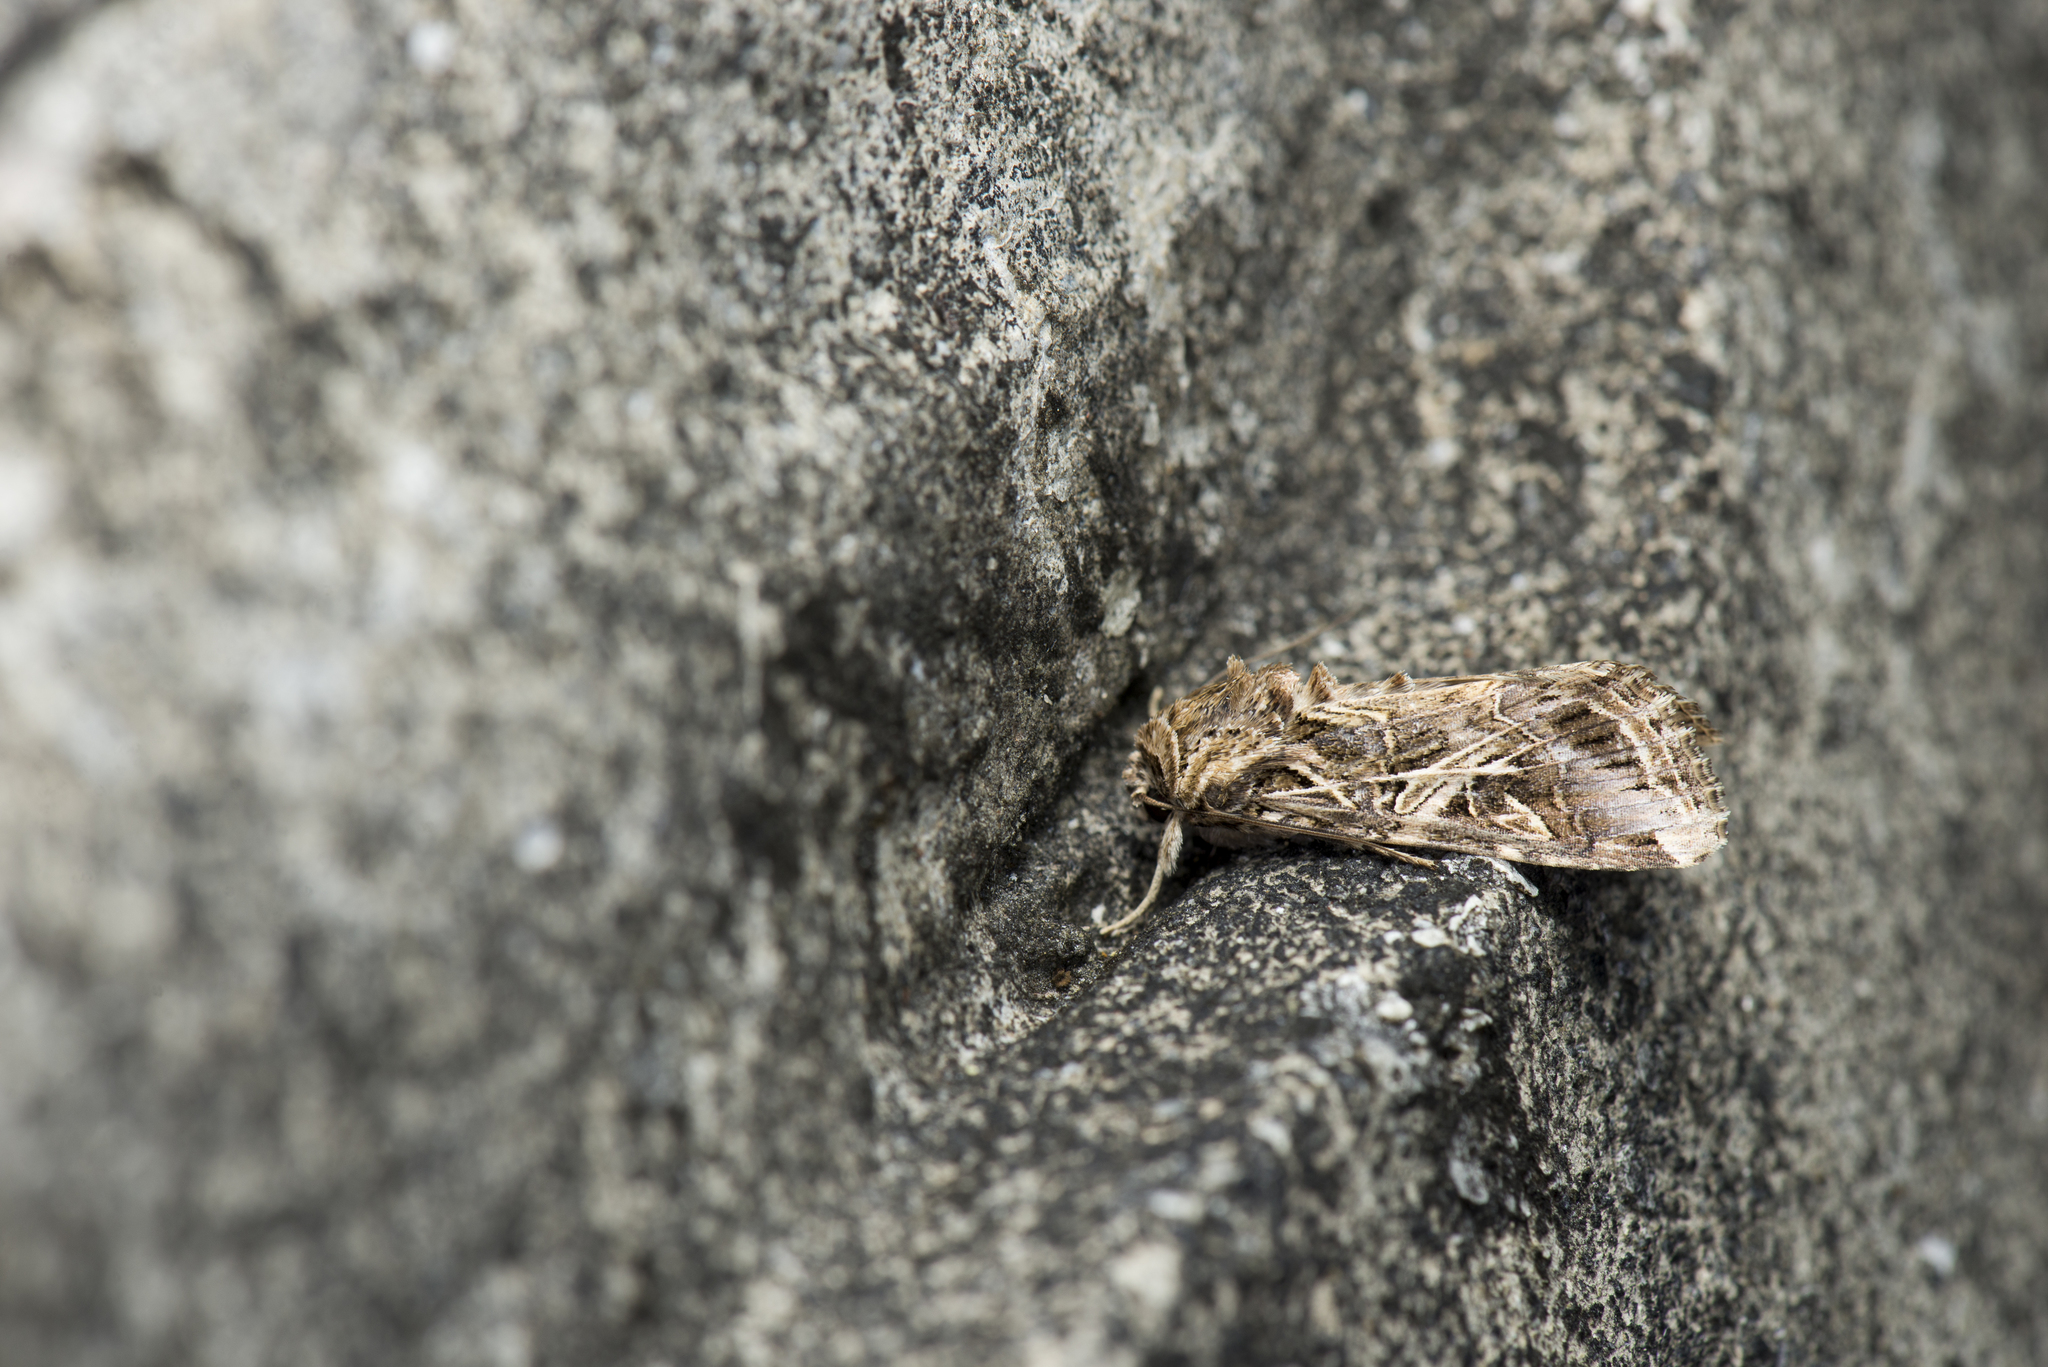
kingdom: Animalia
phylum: Arthropoda
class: Insecta
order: Lepidoptera
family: Noctuidae
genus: Spodoptera
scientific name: Spodoptera litura
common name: Asian cotton leafworm
